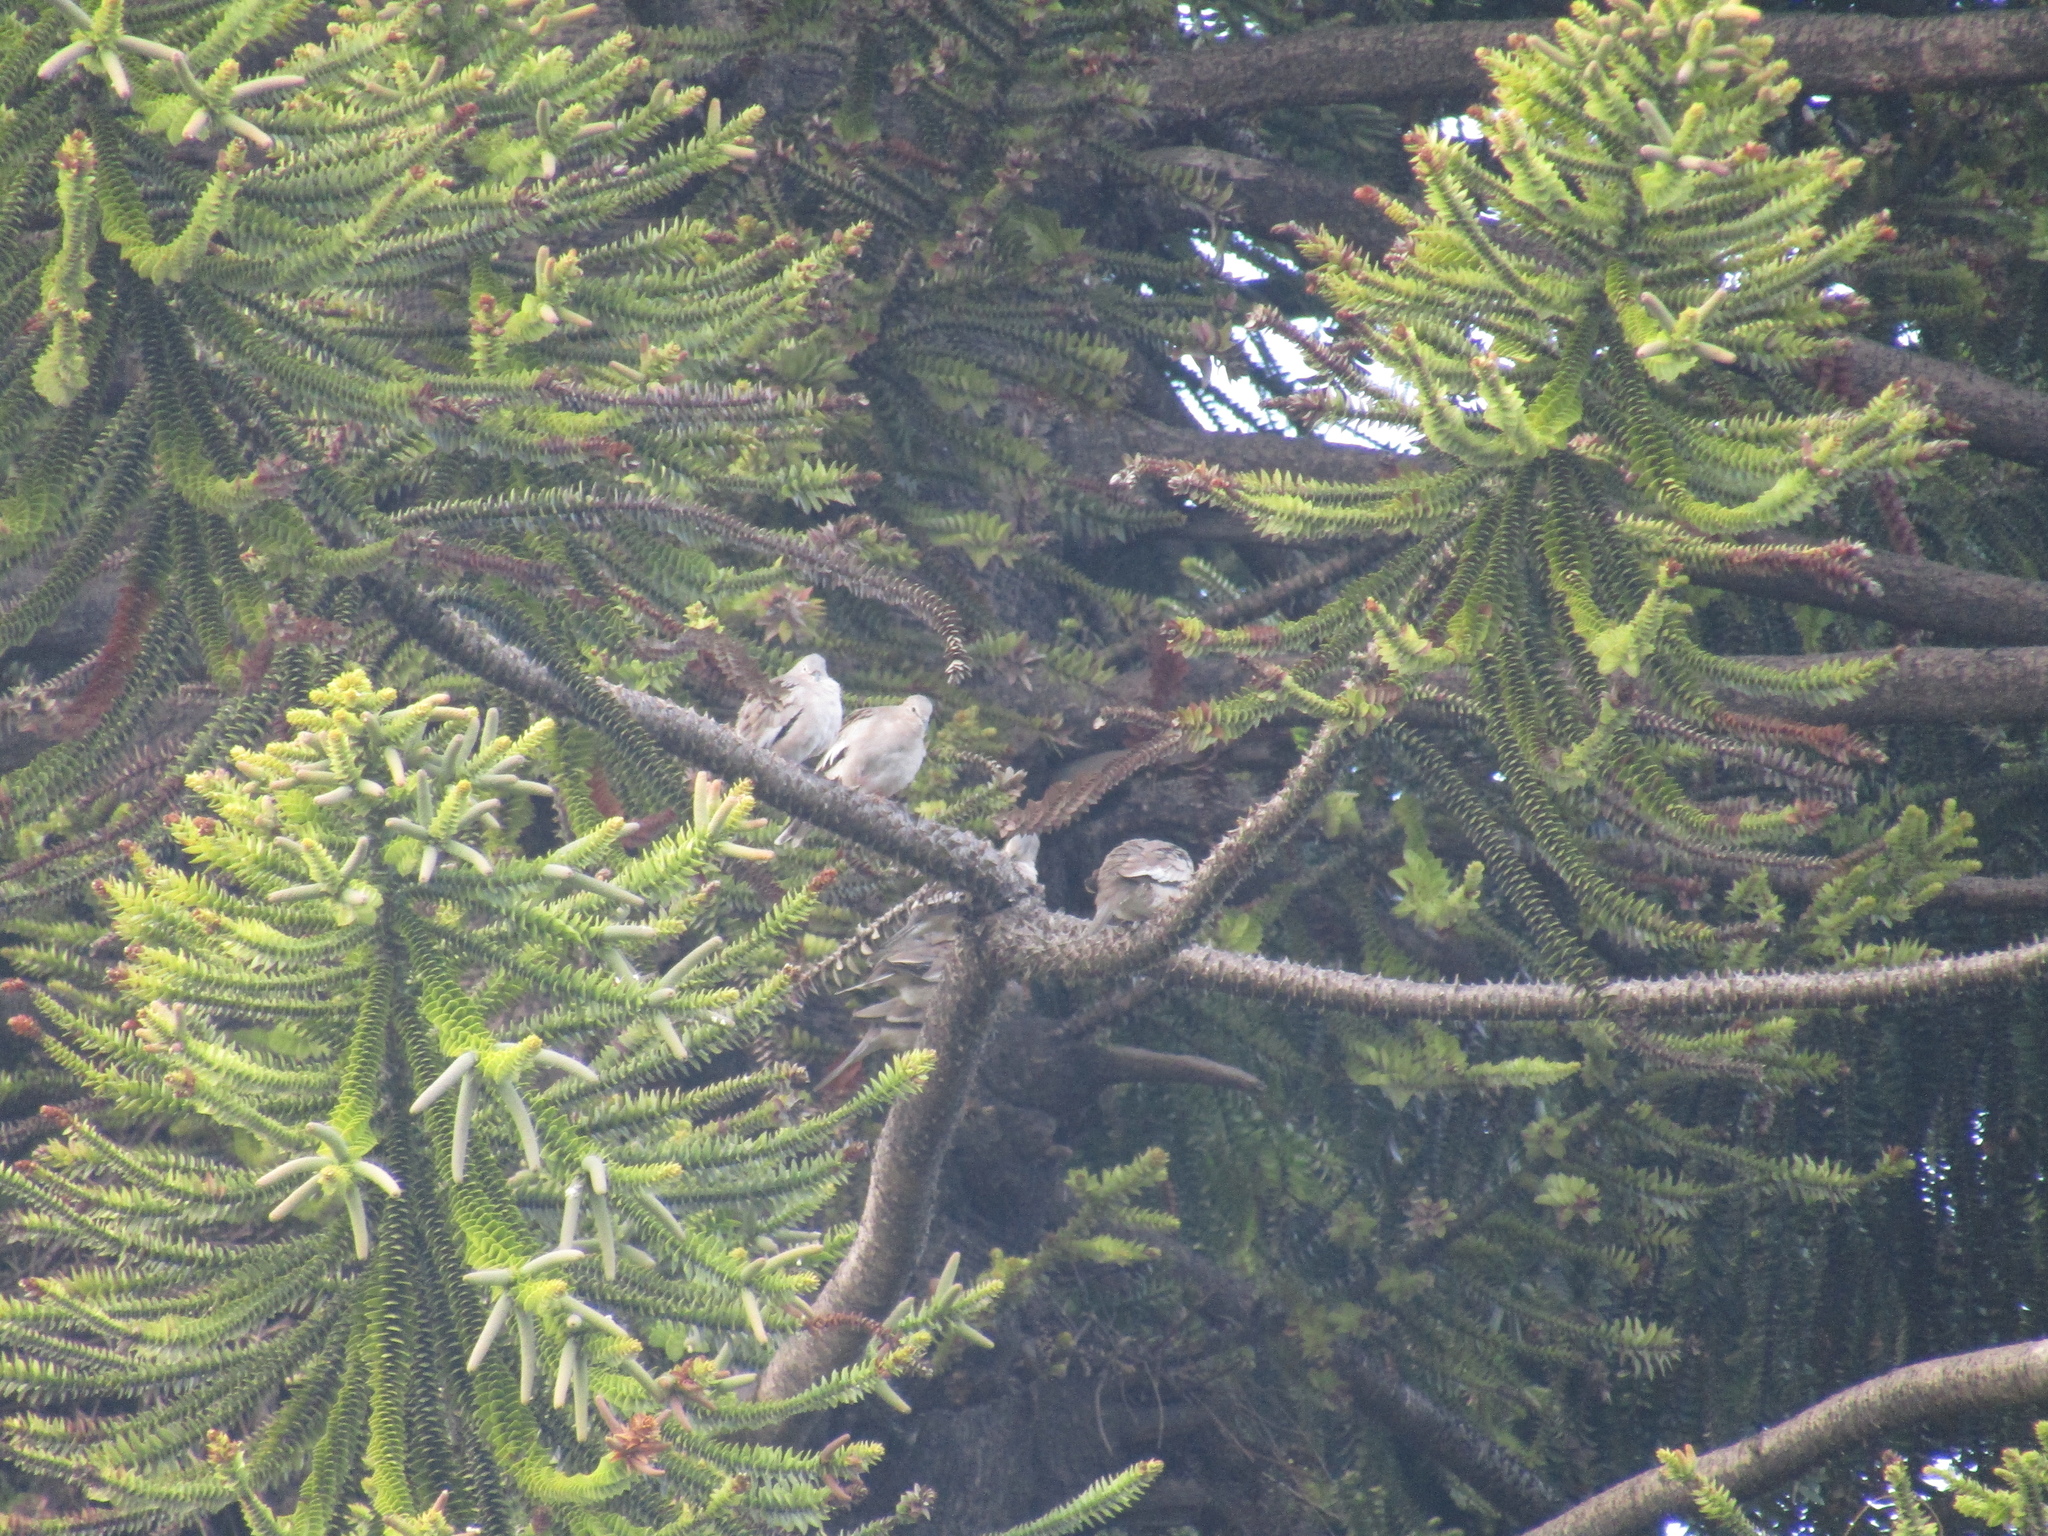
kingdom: Animalia
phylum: Chordata
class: Aves
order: Columbiformes
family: Columbidae
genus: Columbina
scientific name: Columbina picui
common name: Picui ground dove
